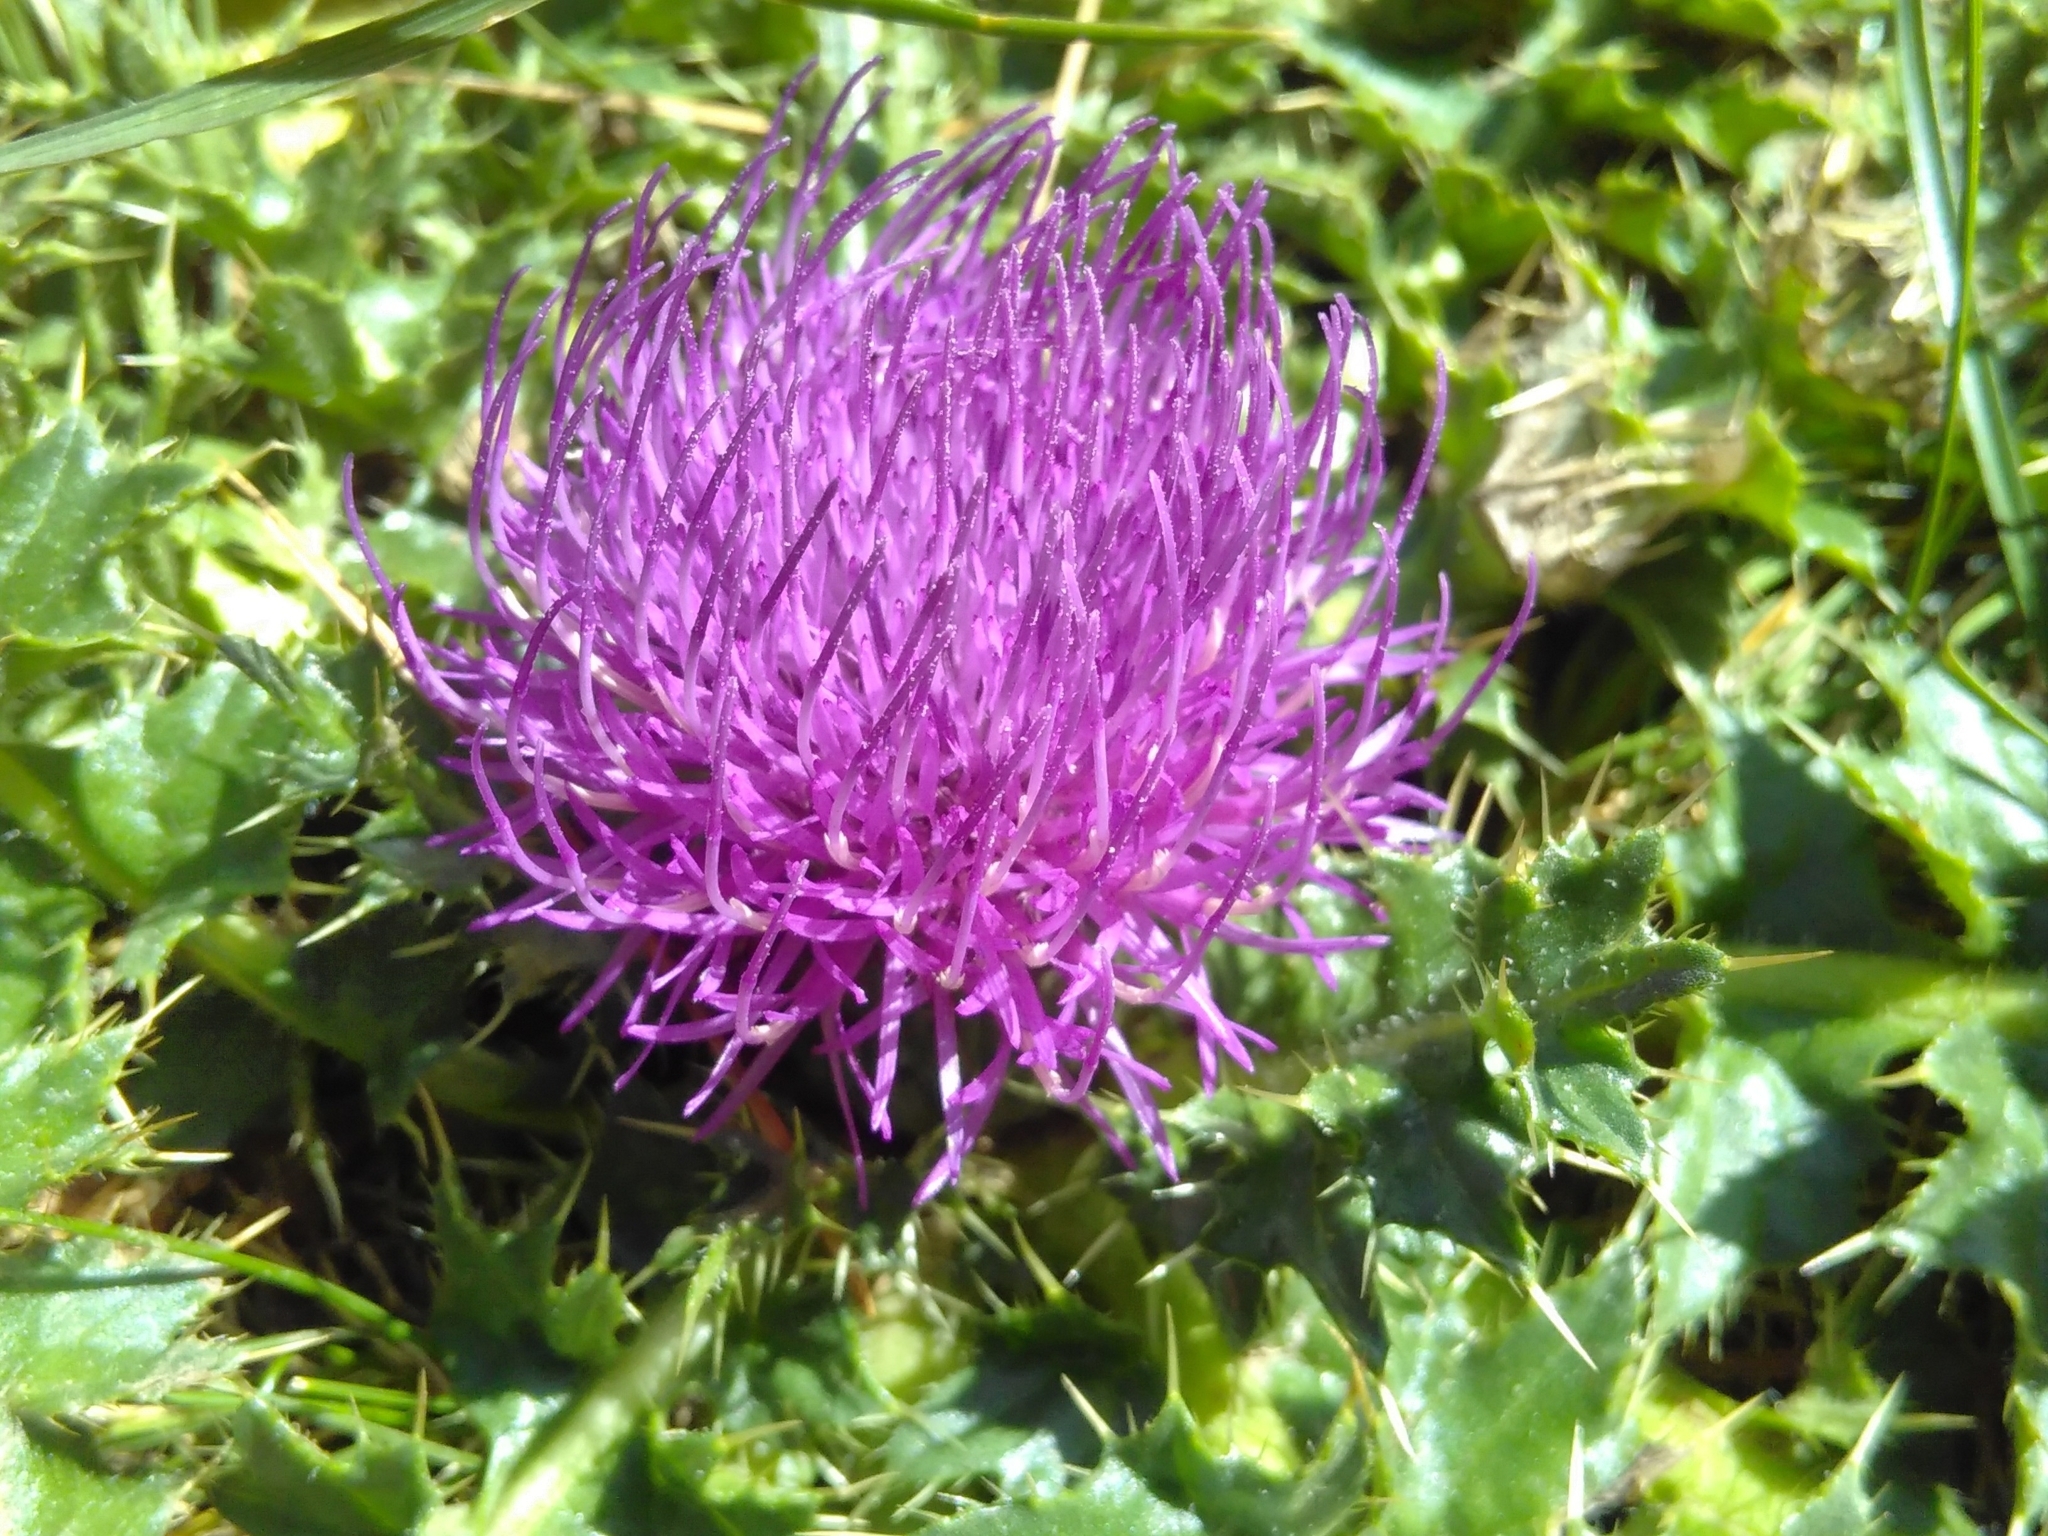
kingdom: Plantae
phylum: Tracheophyta
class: Magnoliopsida
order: Asterales
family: Asteraceae
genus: Cirsium
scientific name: Cirsium acaulon
